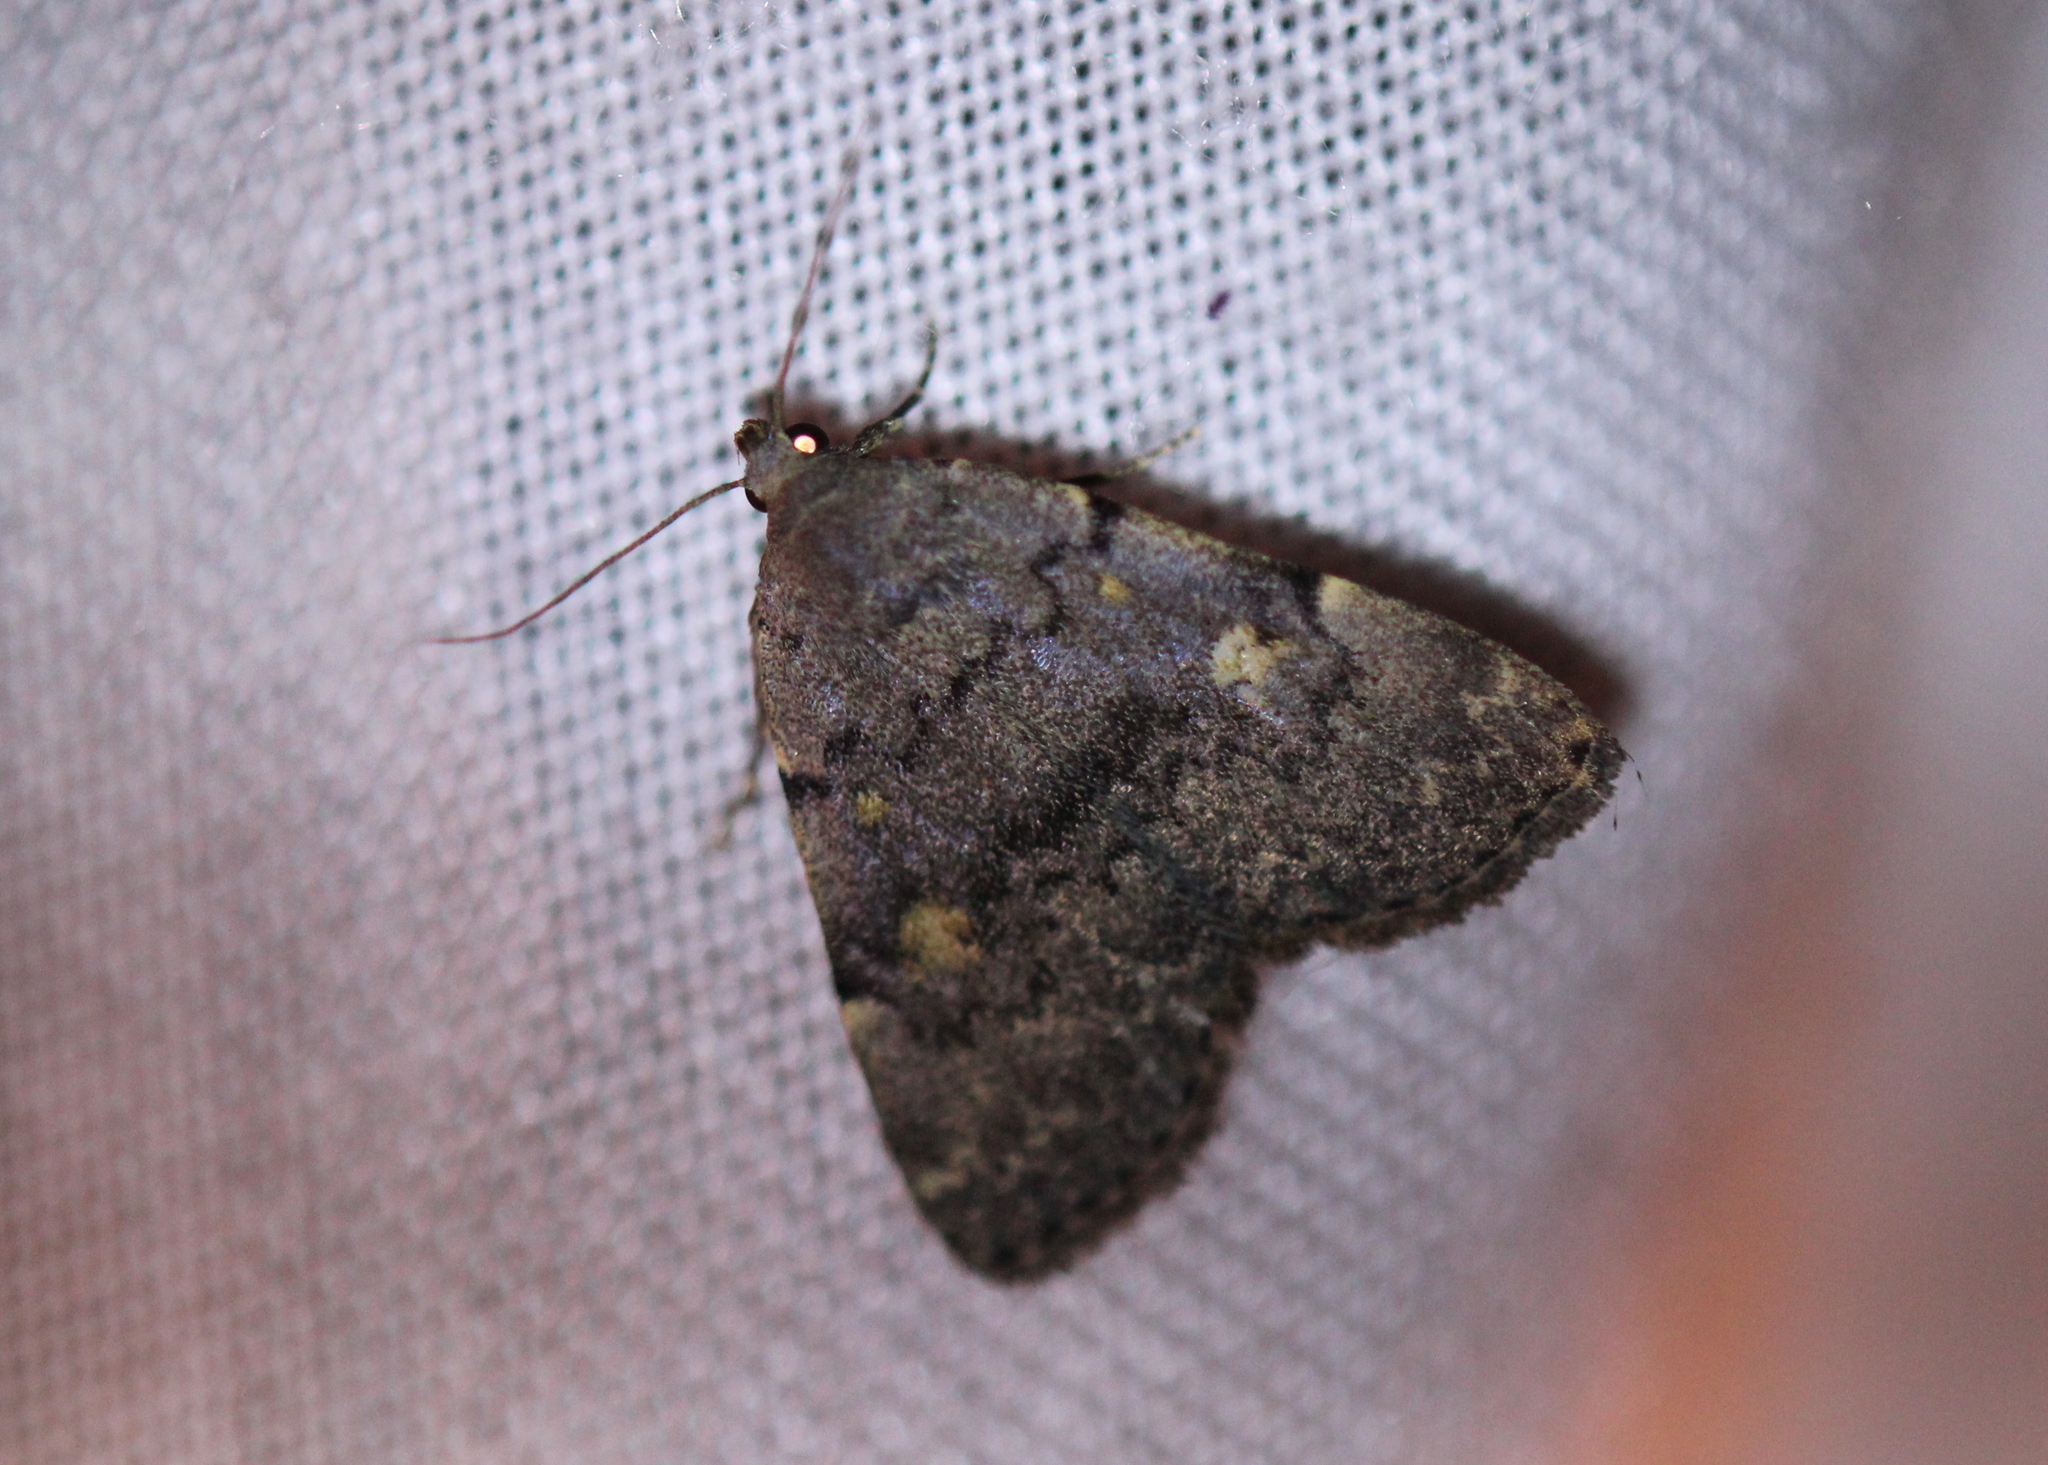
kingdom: Animalia
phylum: Arthropoda
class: Insecta
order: Lepidoptera
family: Erebidae
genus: Idia
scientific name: Idia aemula
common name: Common idia moth
